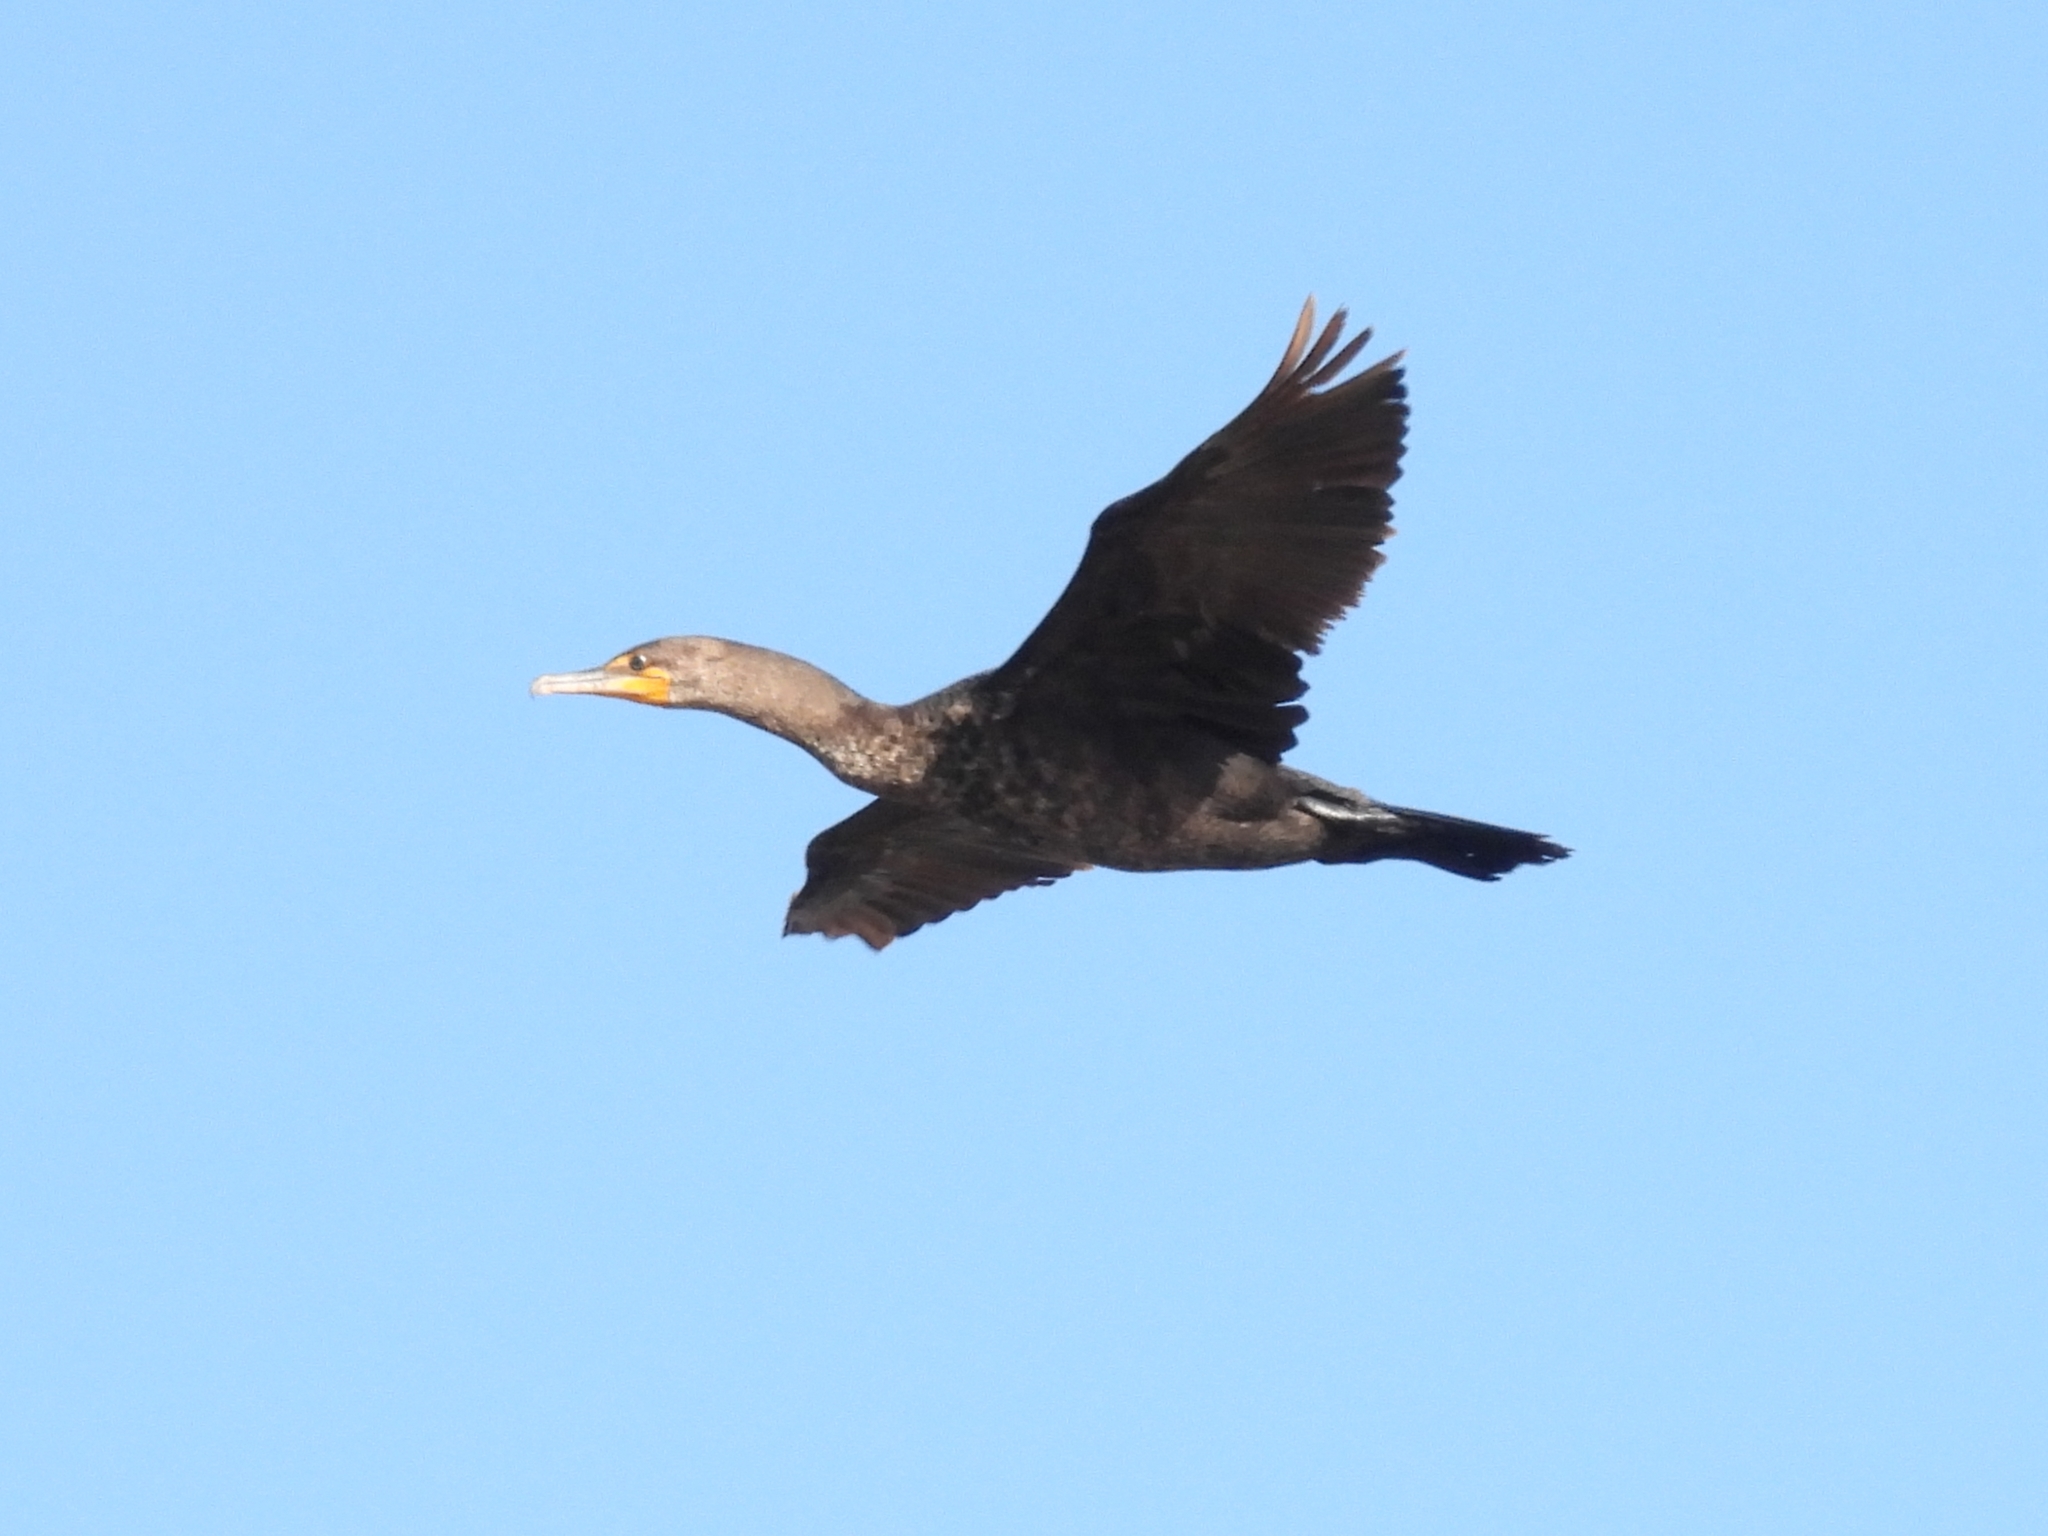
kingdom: Animalia
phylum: Chordata
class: Aves
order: Suliformes
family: Phalacrocoracidae
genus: Phalacrocorax
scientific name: Phalacrocorax auritus
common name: Double-crested cormorant
